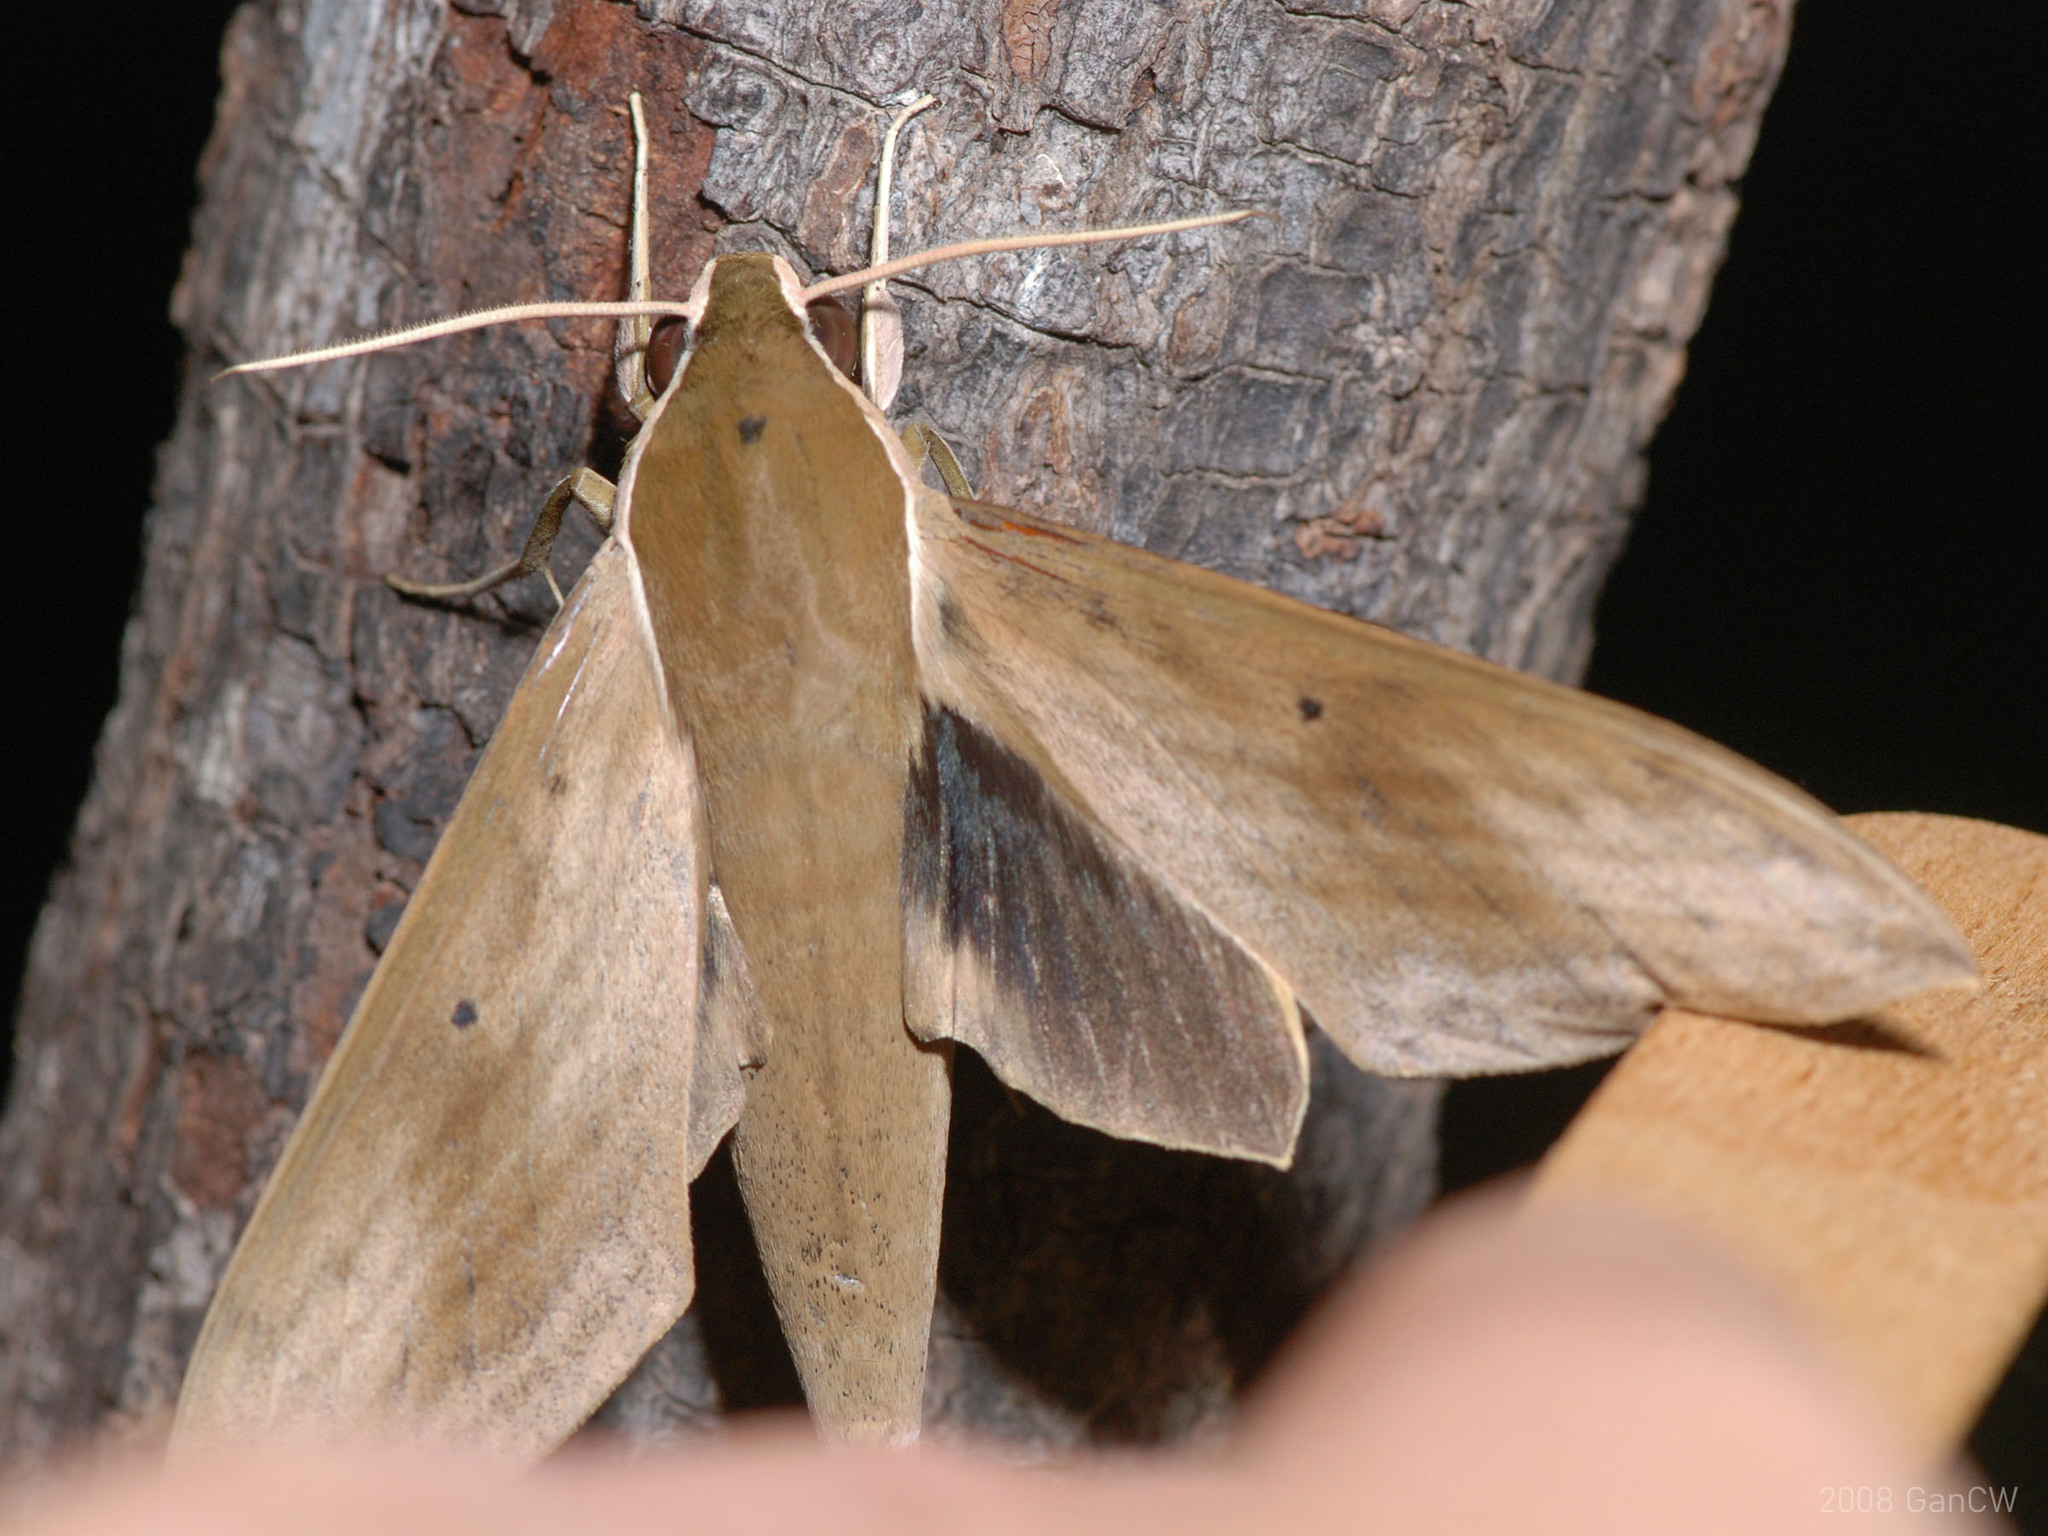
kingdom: Animalia
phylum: Arthropoda
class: Insecta
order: Lepidoptera
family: Sphingidae
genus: Theretra
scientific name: Theretra sumatrensis
